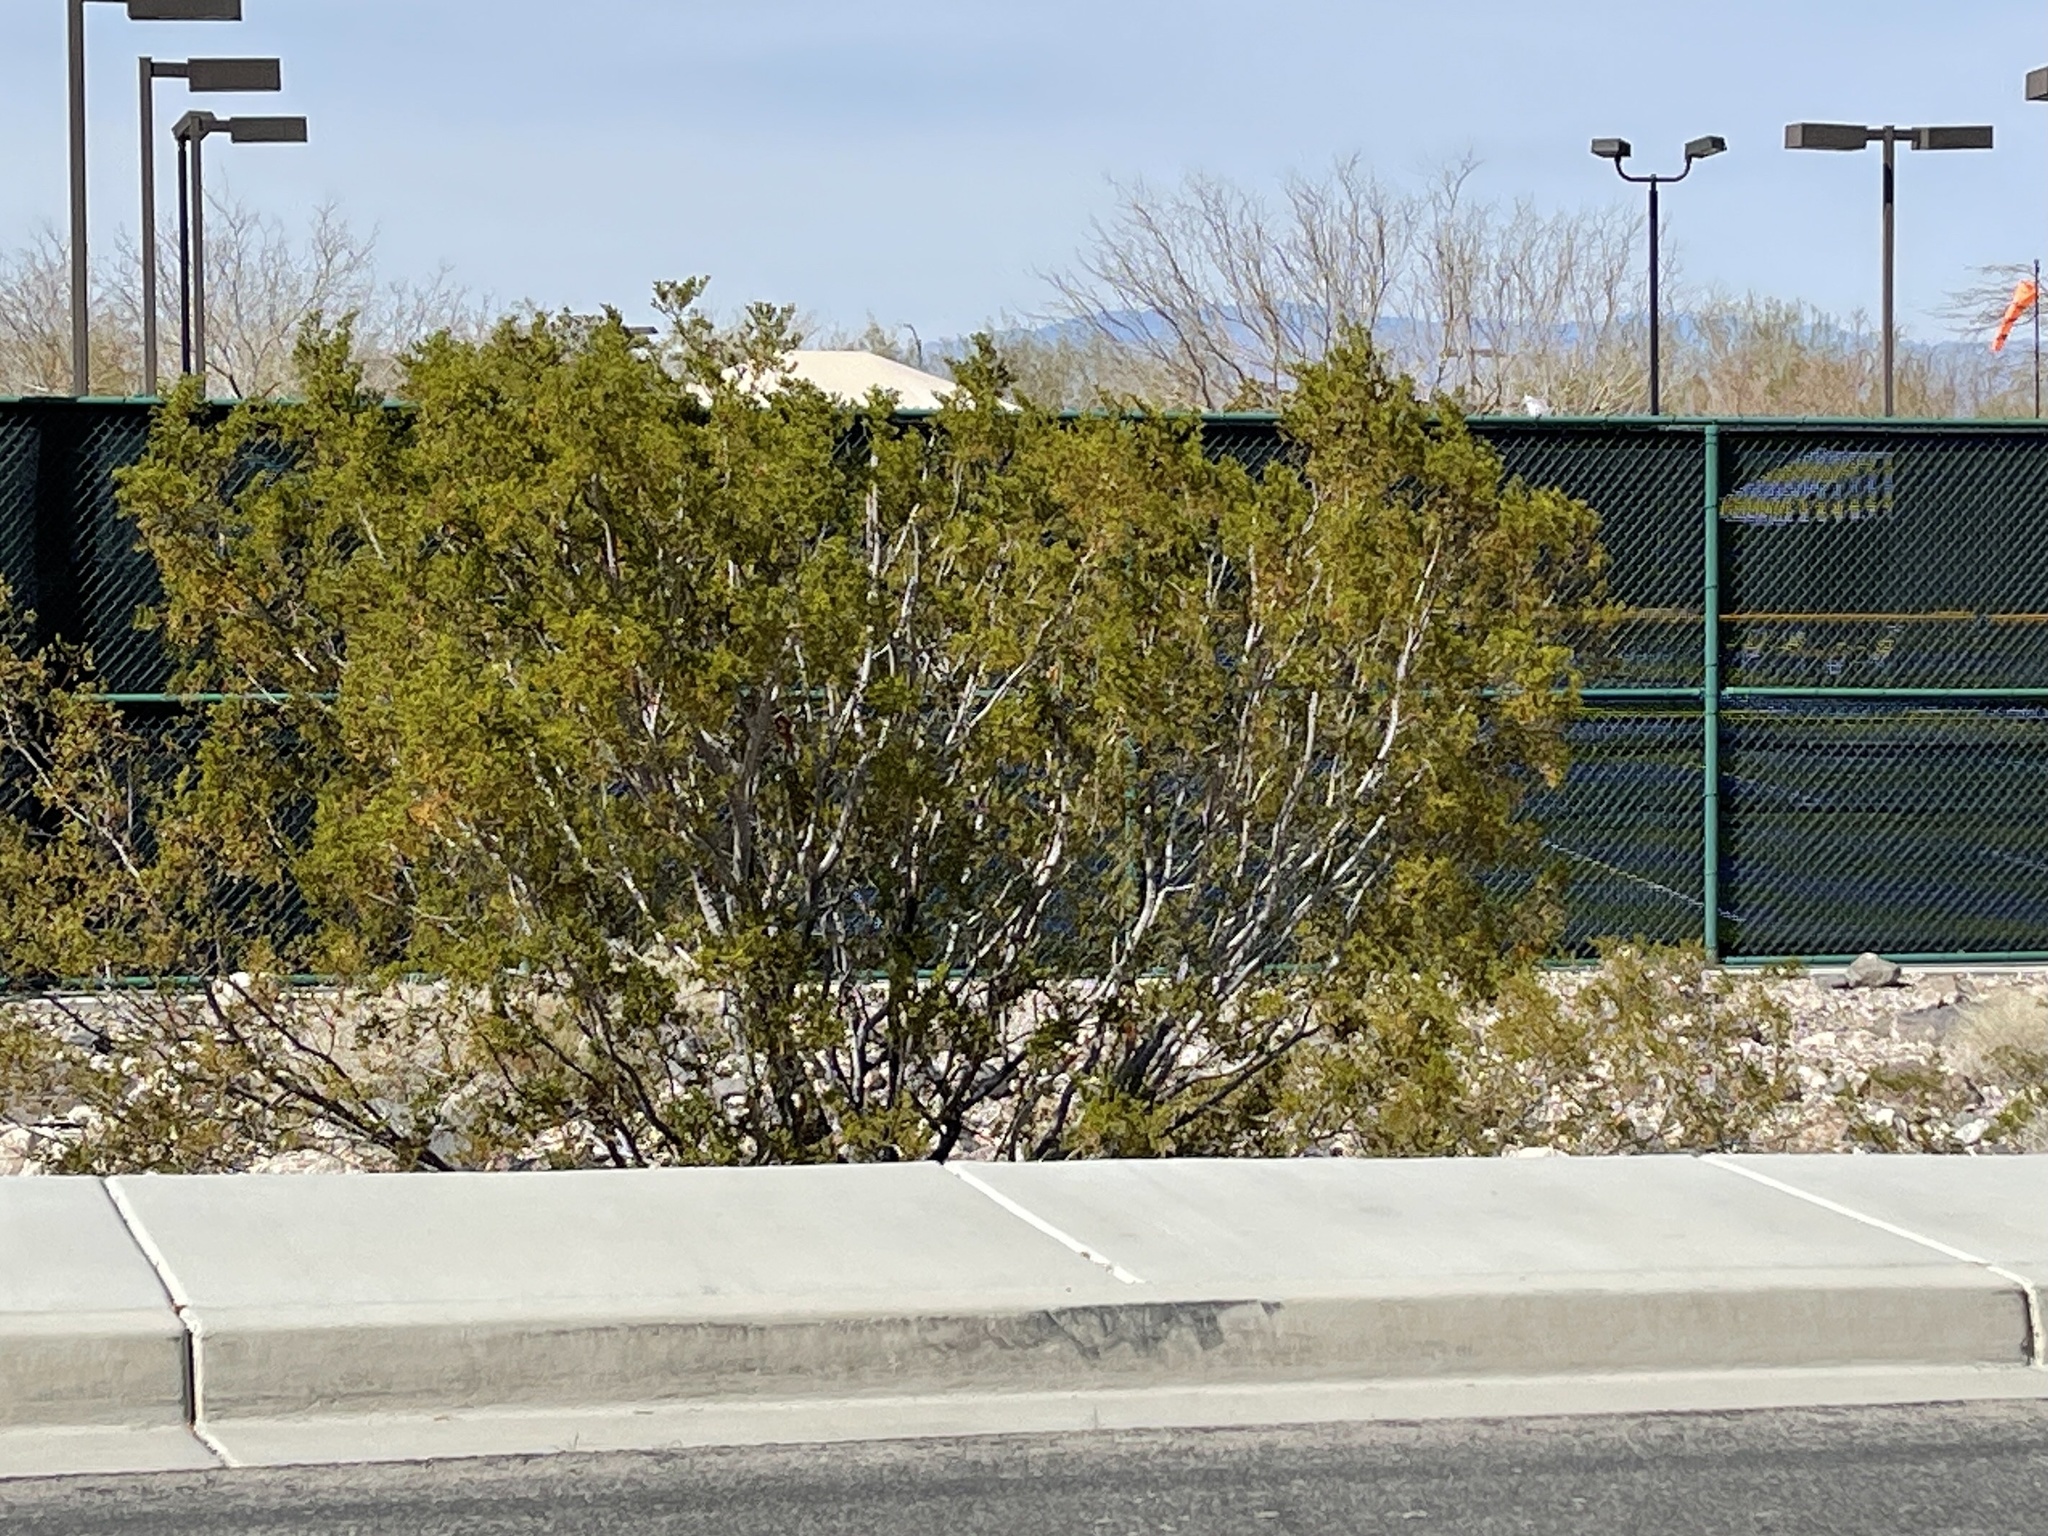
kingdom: Plantae
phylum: Tracheophyta
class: Magnoliopsida
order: Zygophyllales
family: Zygophyllaceae
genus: Larrea
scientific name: Larrea tridentata
